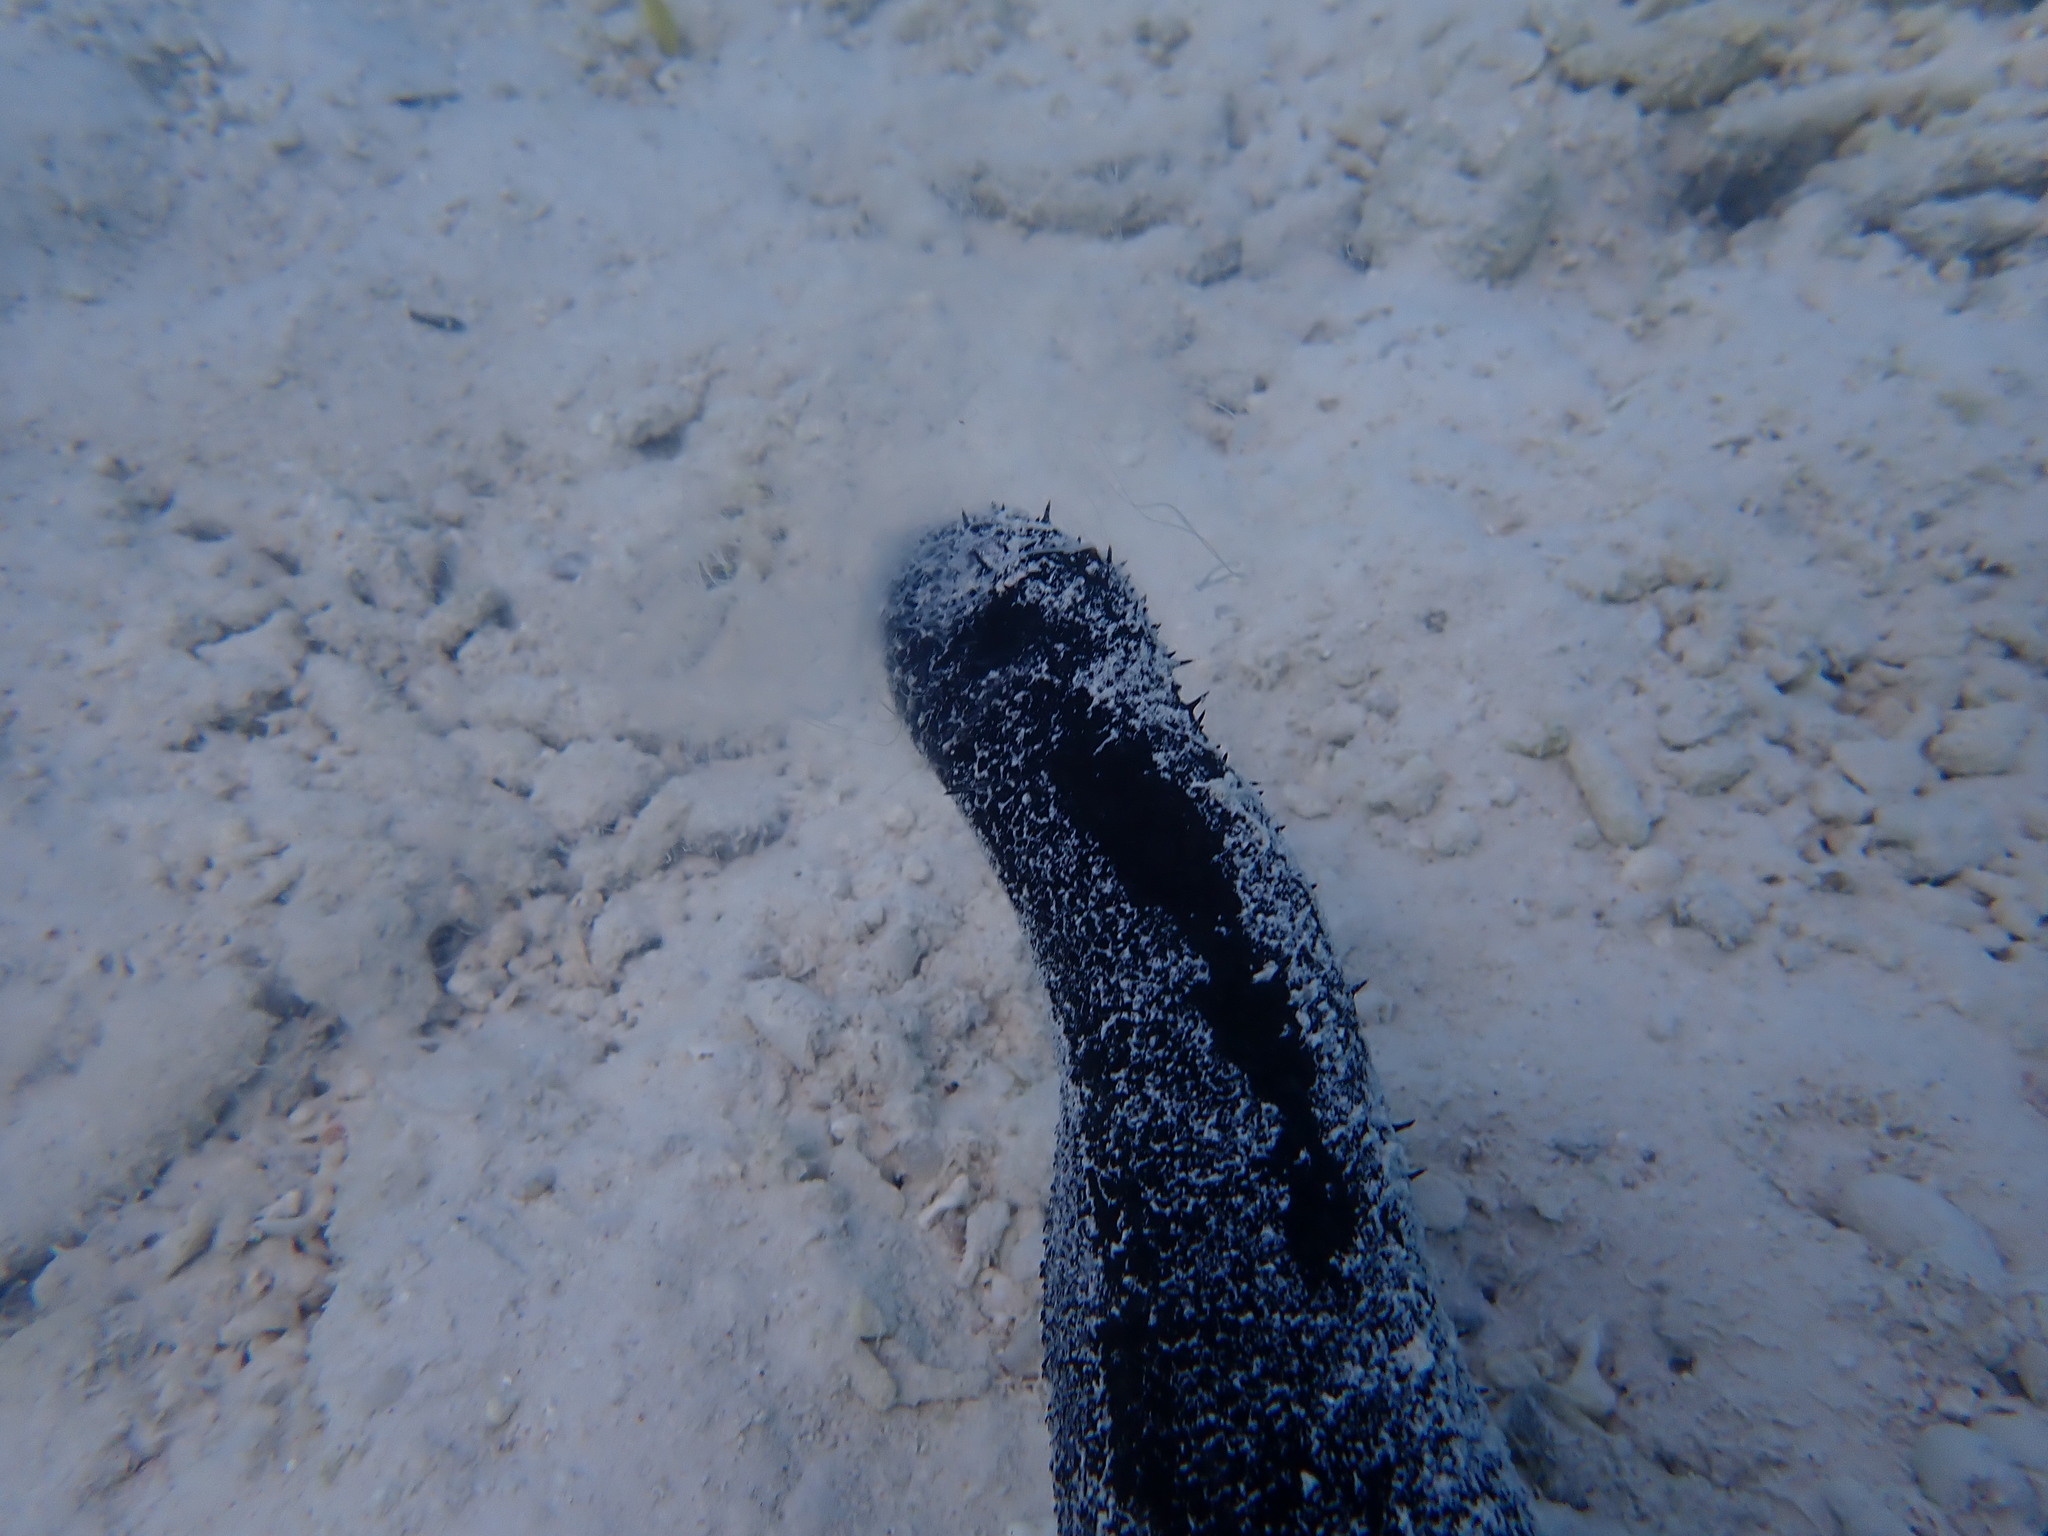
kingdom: Animalia
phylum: Echinodermata
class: Holothuroidea
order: Holothuriida
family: Holothuriidae
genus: Holothuria
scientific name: Holothuria atra
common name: Lollyfish
